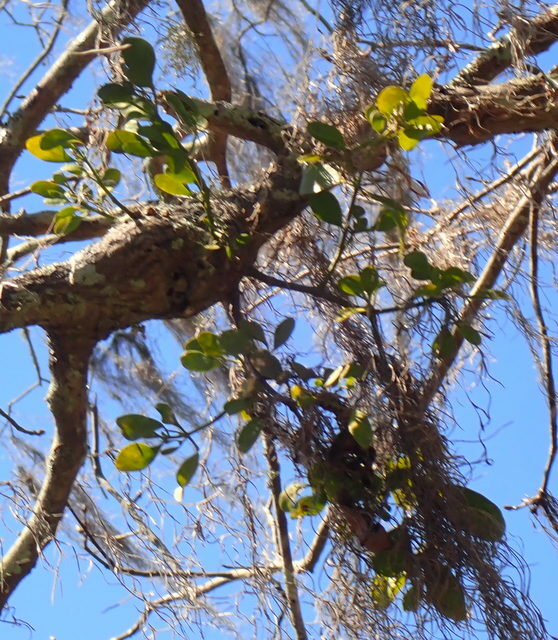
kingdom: Plantae
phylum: Tracheophyta
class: Magnoliopsida
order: Santalales
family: Viscaceae
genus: Phoradendron
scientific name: Phoradendron leucarpum
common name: Pacific mistletoe
